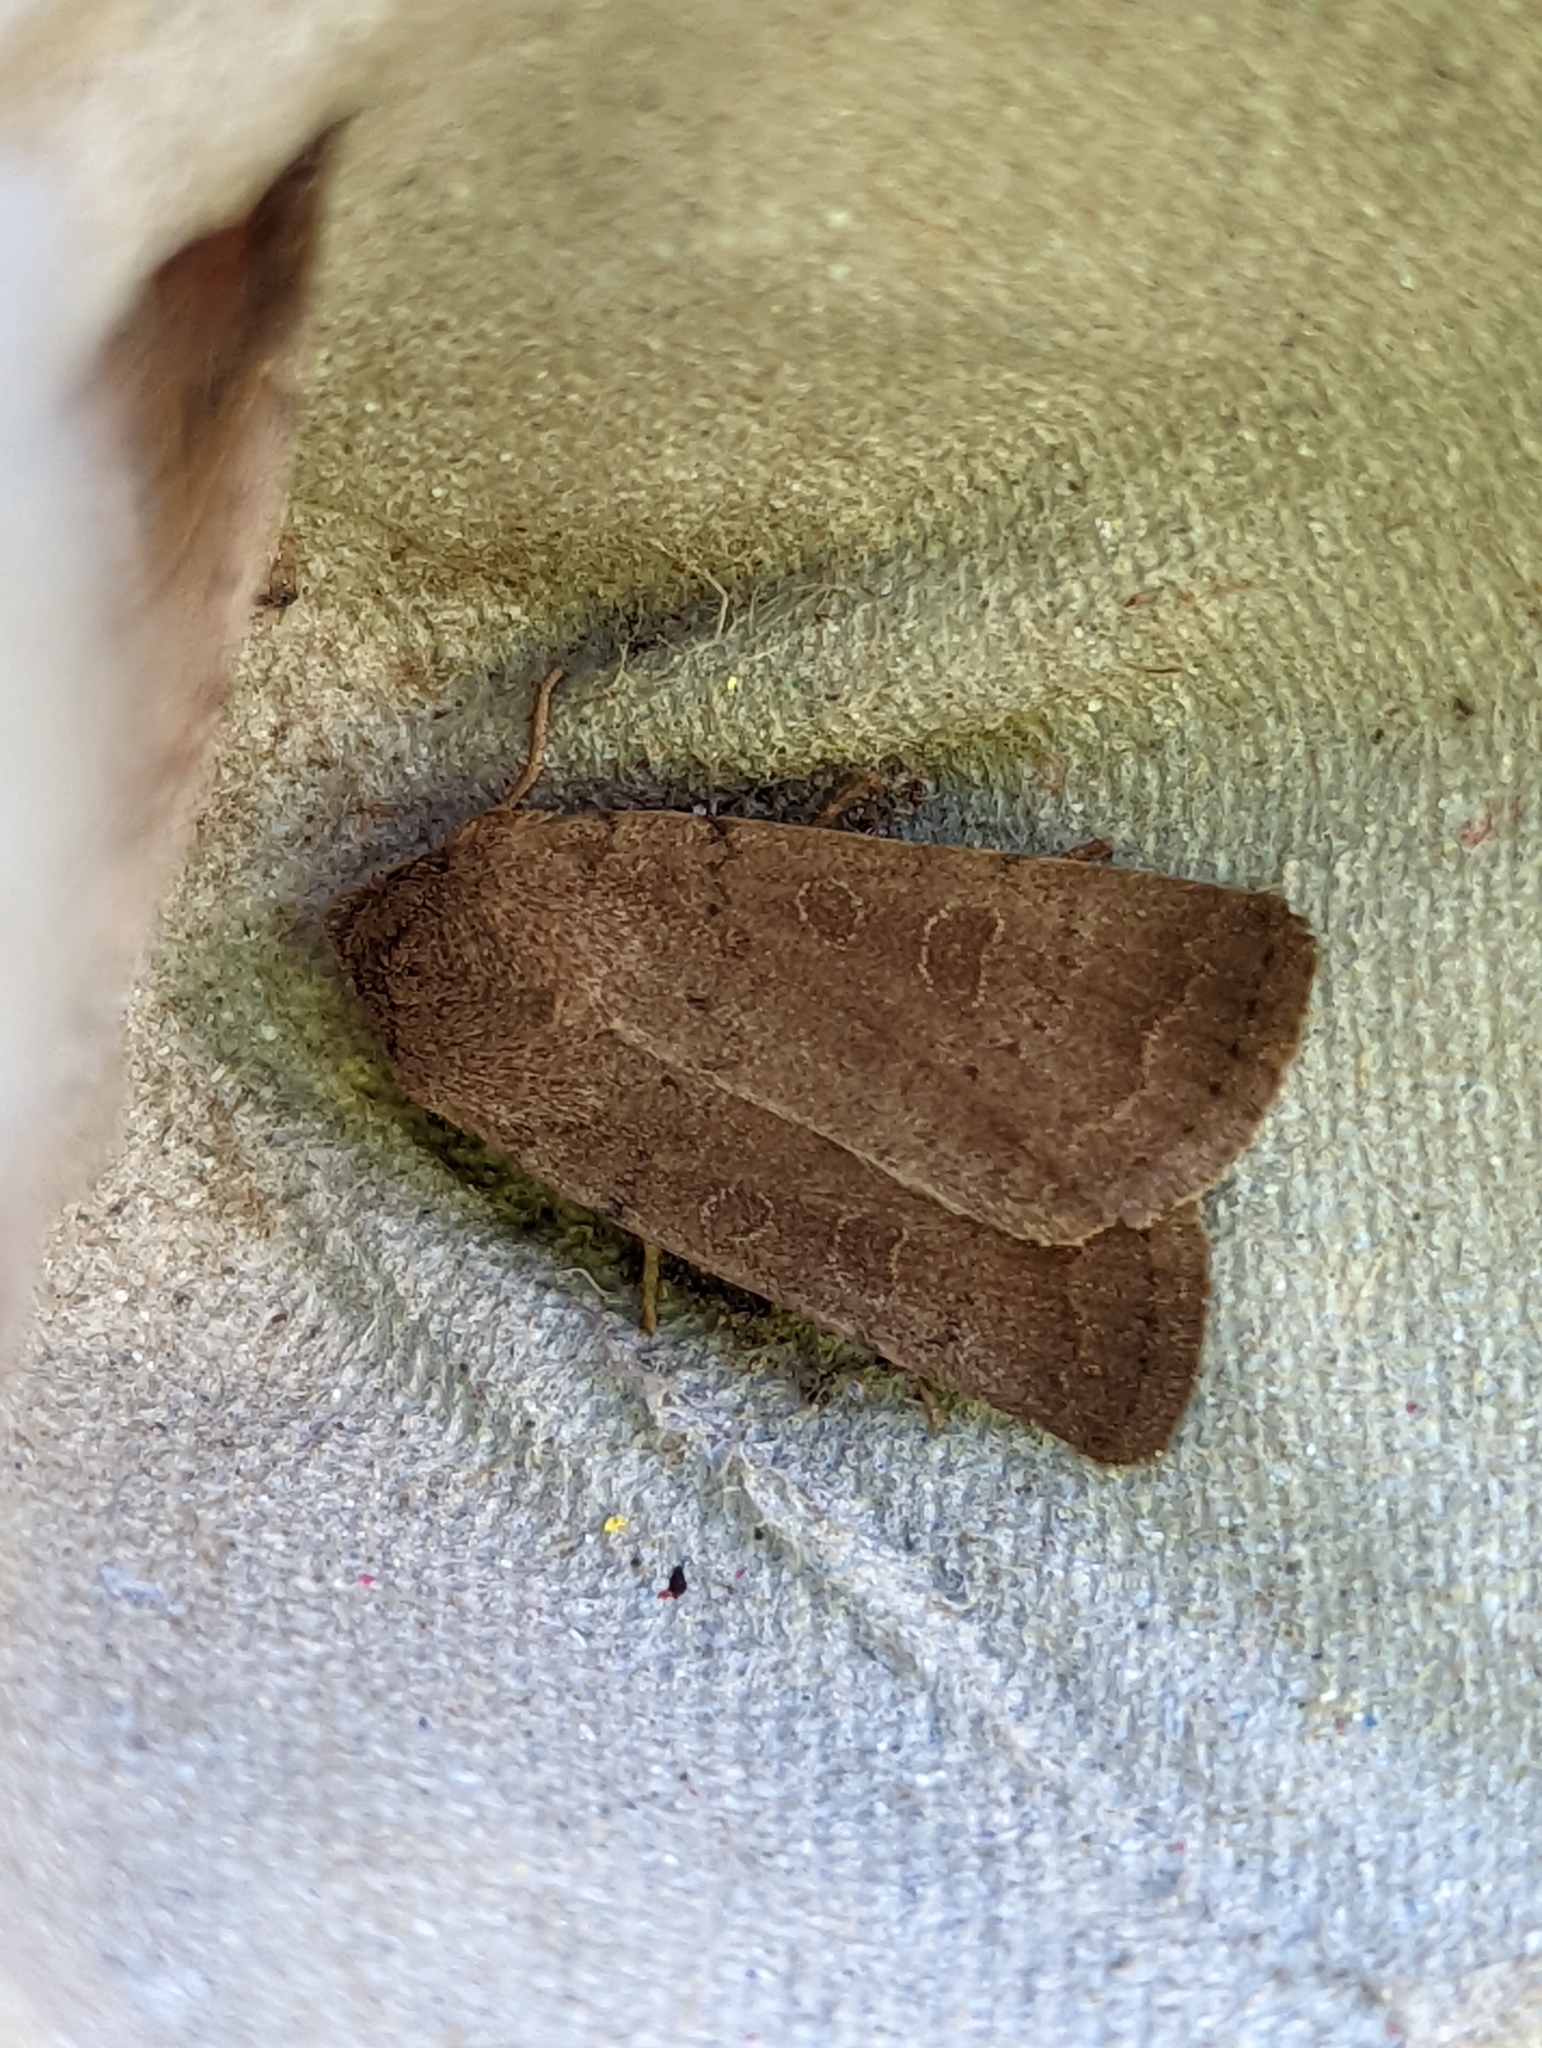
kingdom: Animalia
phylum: Arthropoda
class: Insecta
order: Lepidoptera
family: Noctuidae
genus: Hoplodrina
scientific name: Hoplodrina blanda
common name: Rustic
